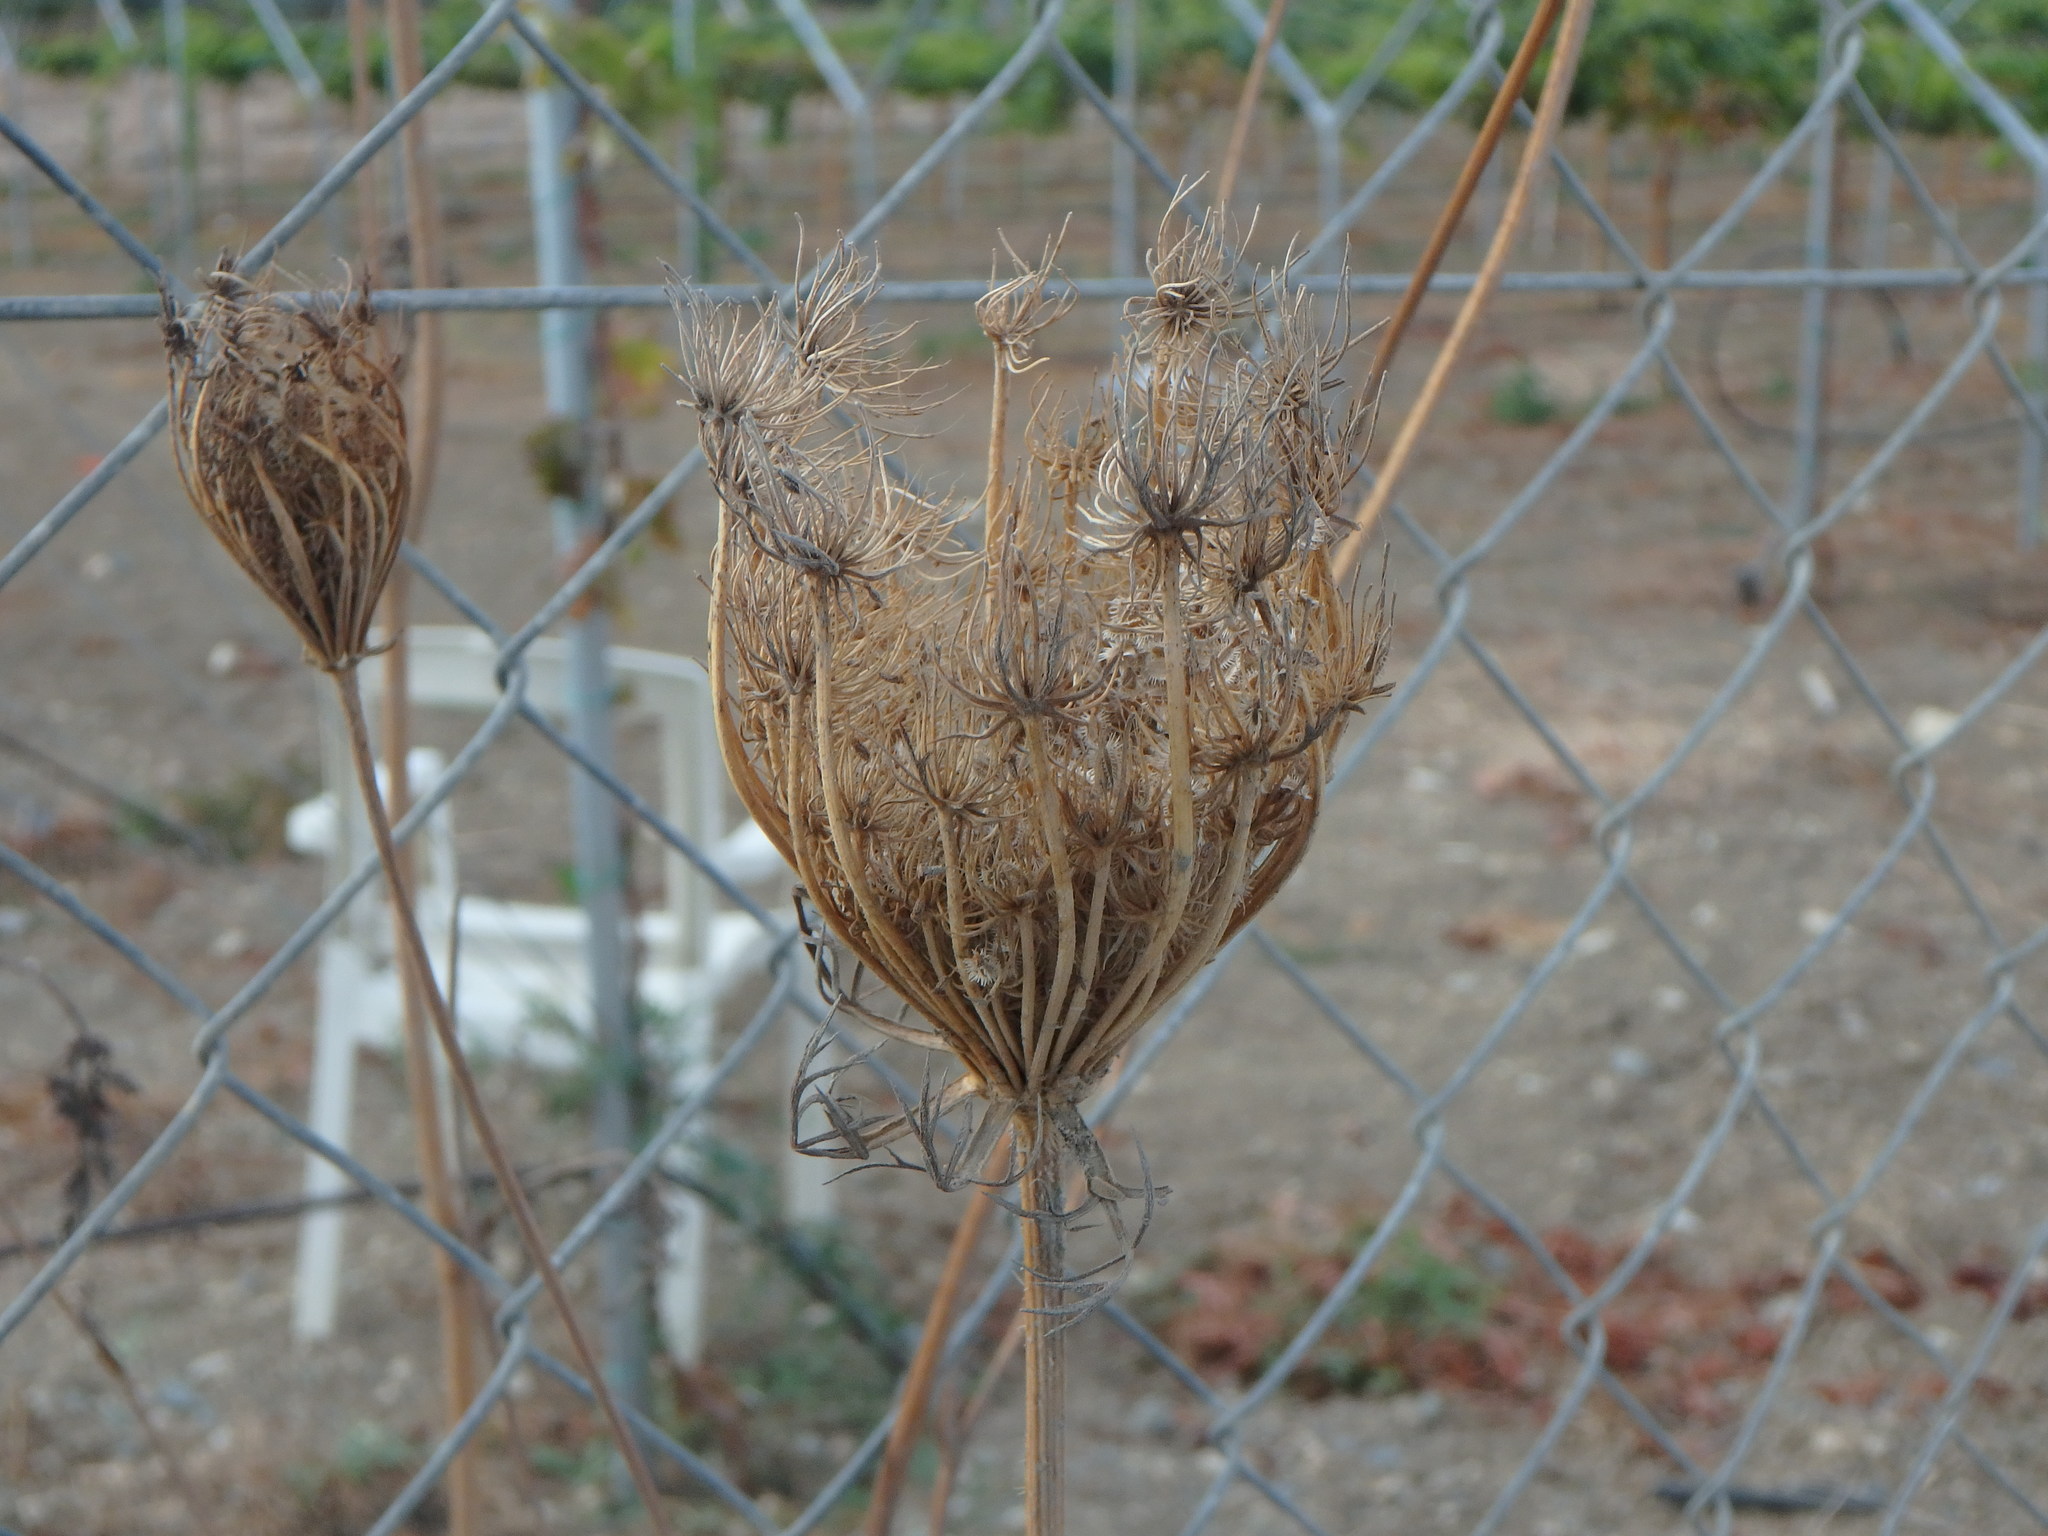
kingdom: Plantae
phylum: Tracheophyta
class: Magnoliopsida
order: Apiales
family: Apiaceae
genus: Daucus
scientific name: Daucus carota
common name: Wild carrot
